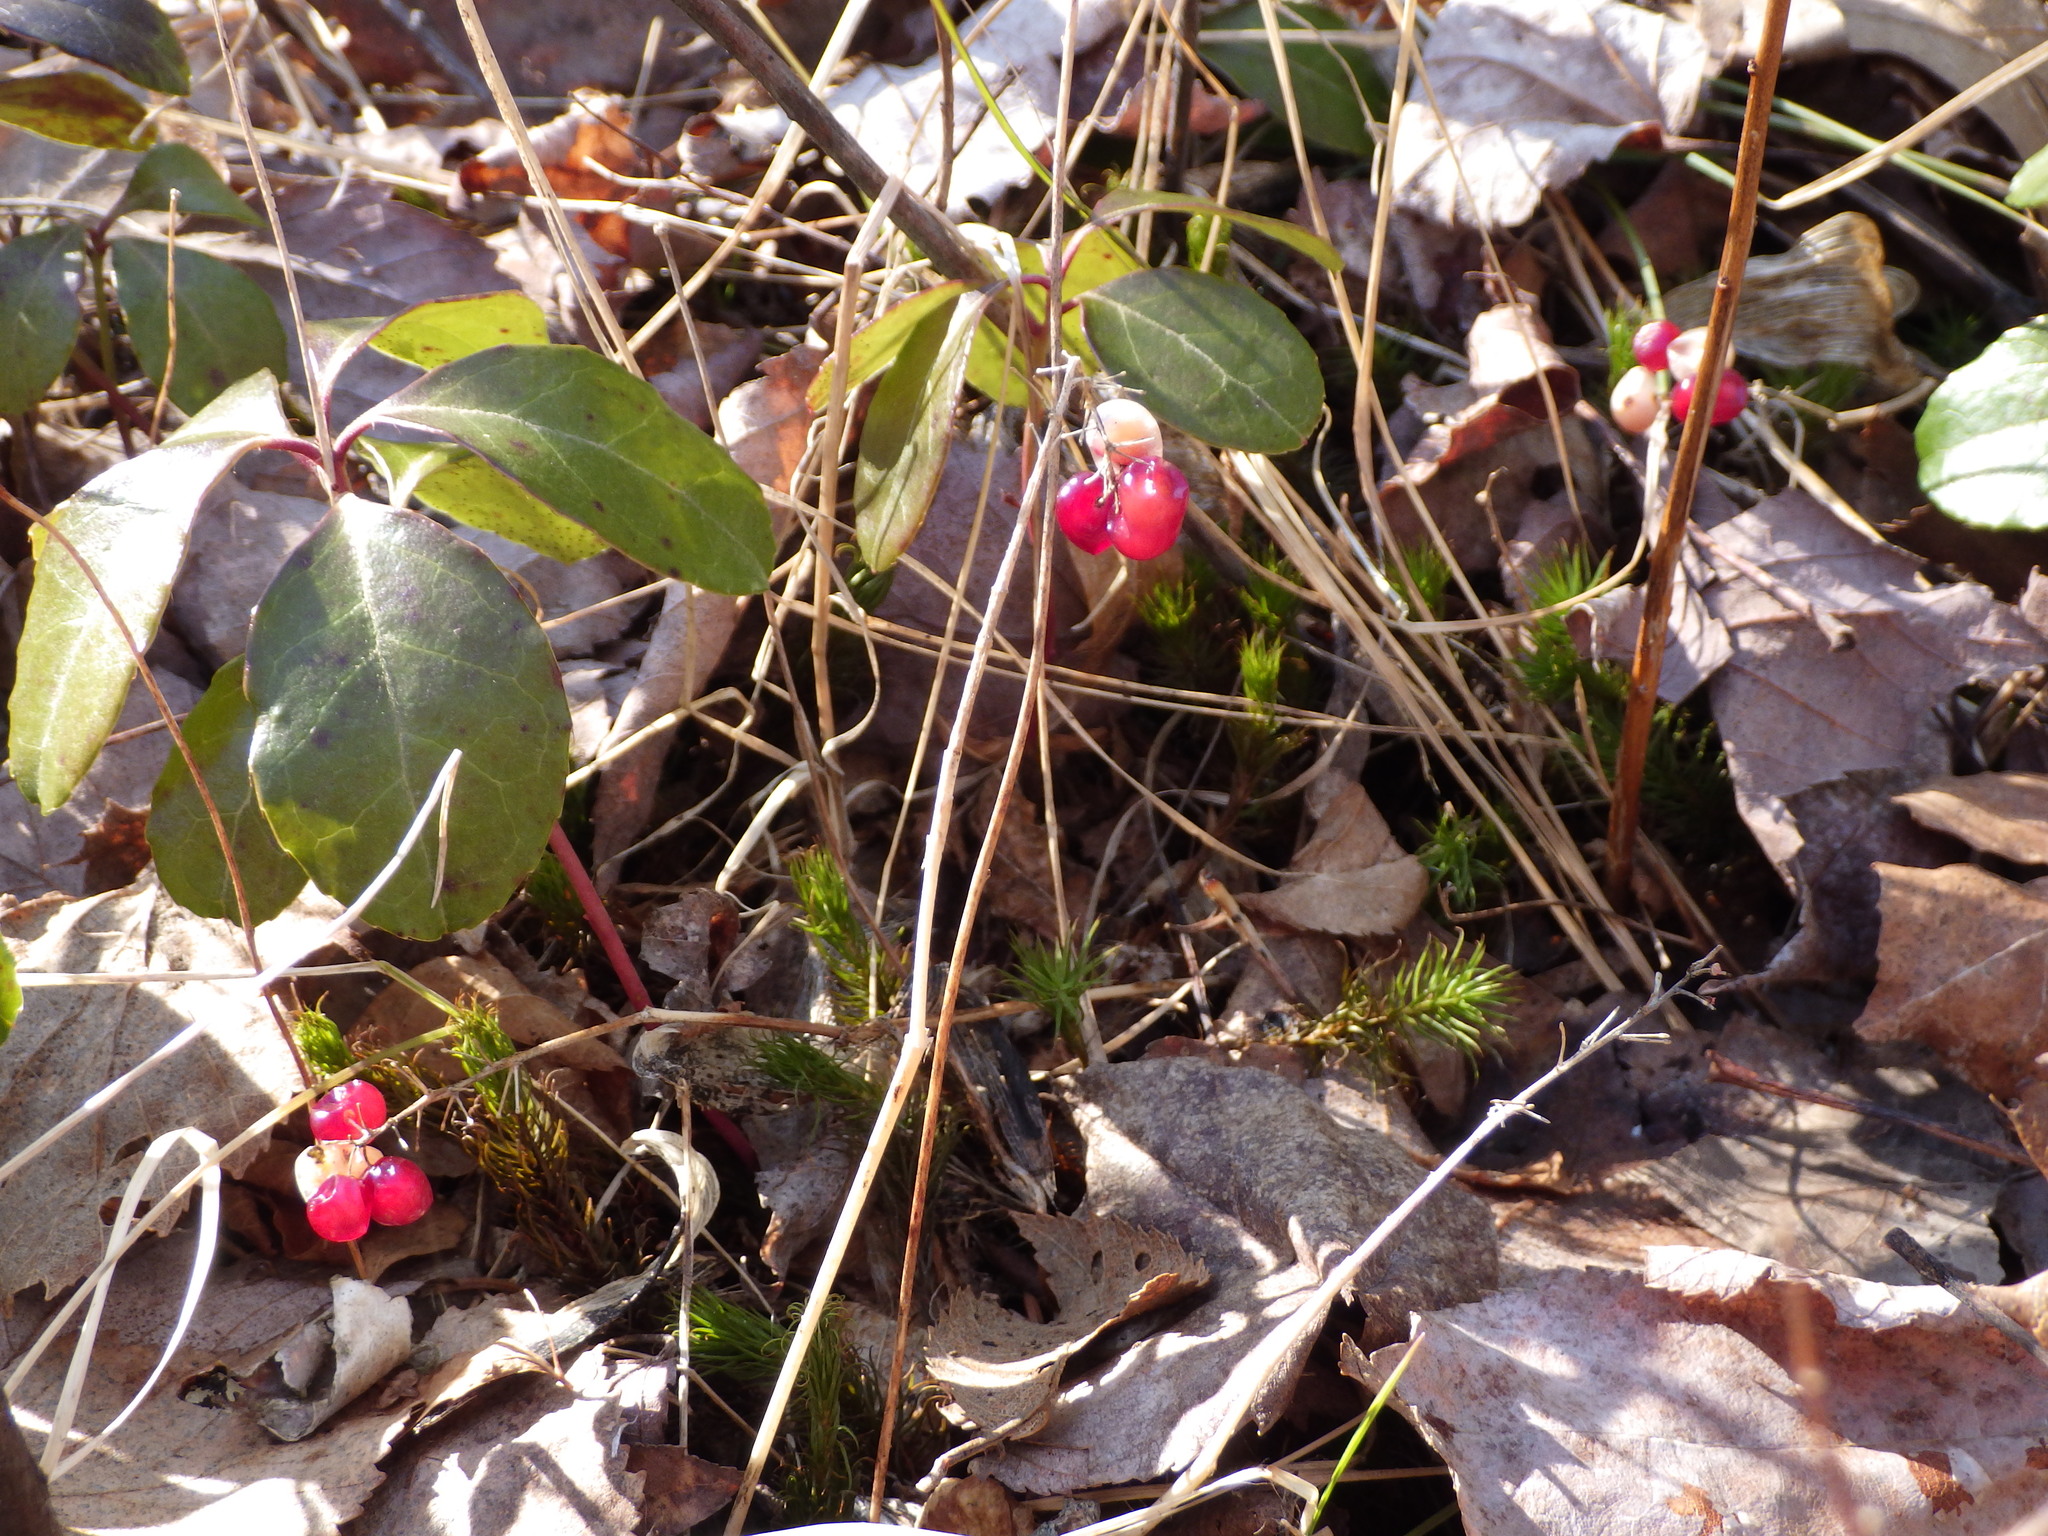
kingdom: Plantae
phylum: Tracheophyta
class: Liliopsida
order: Asparagales
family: Asparagaceae
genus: Maianthemum
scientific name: Maianthemum canadense
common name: False lily-of-the-valley
